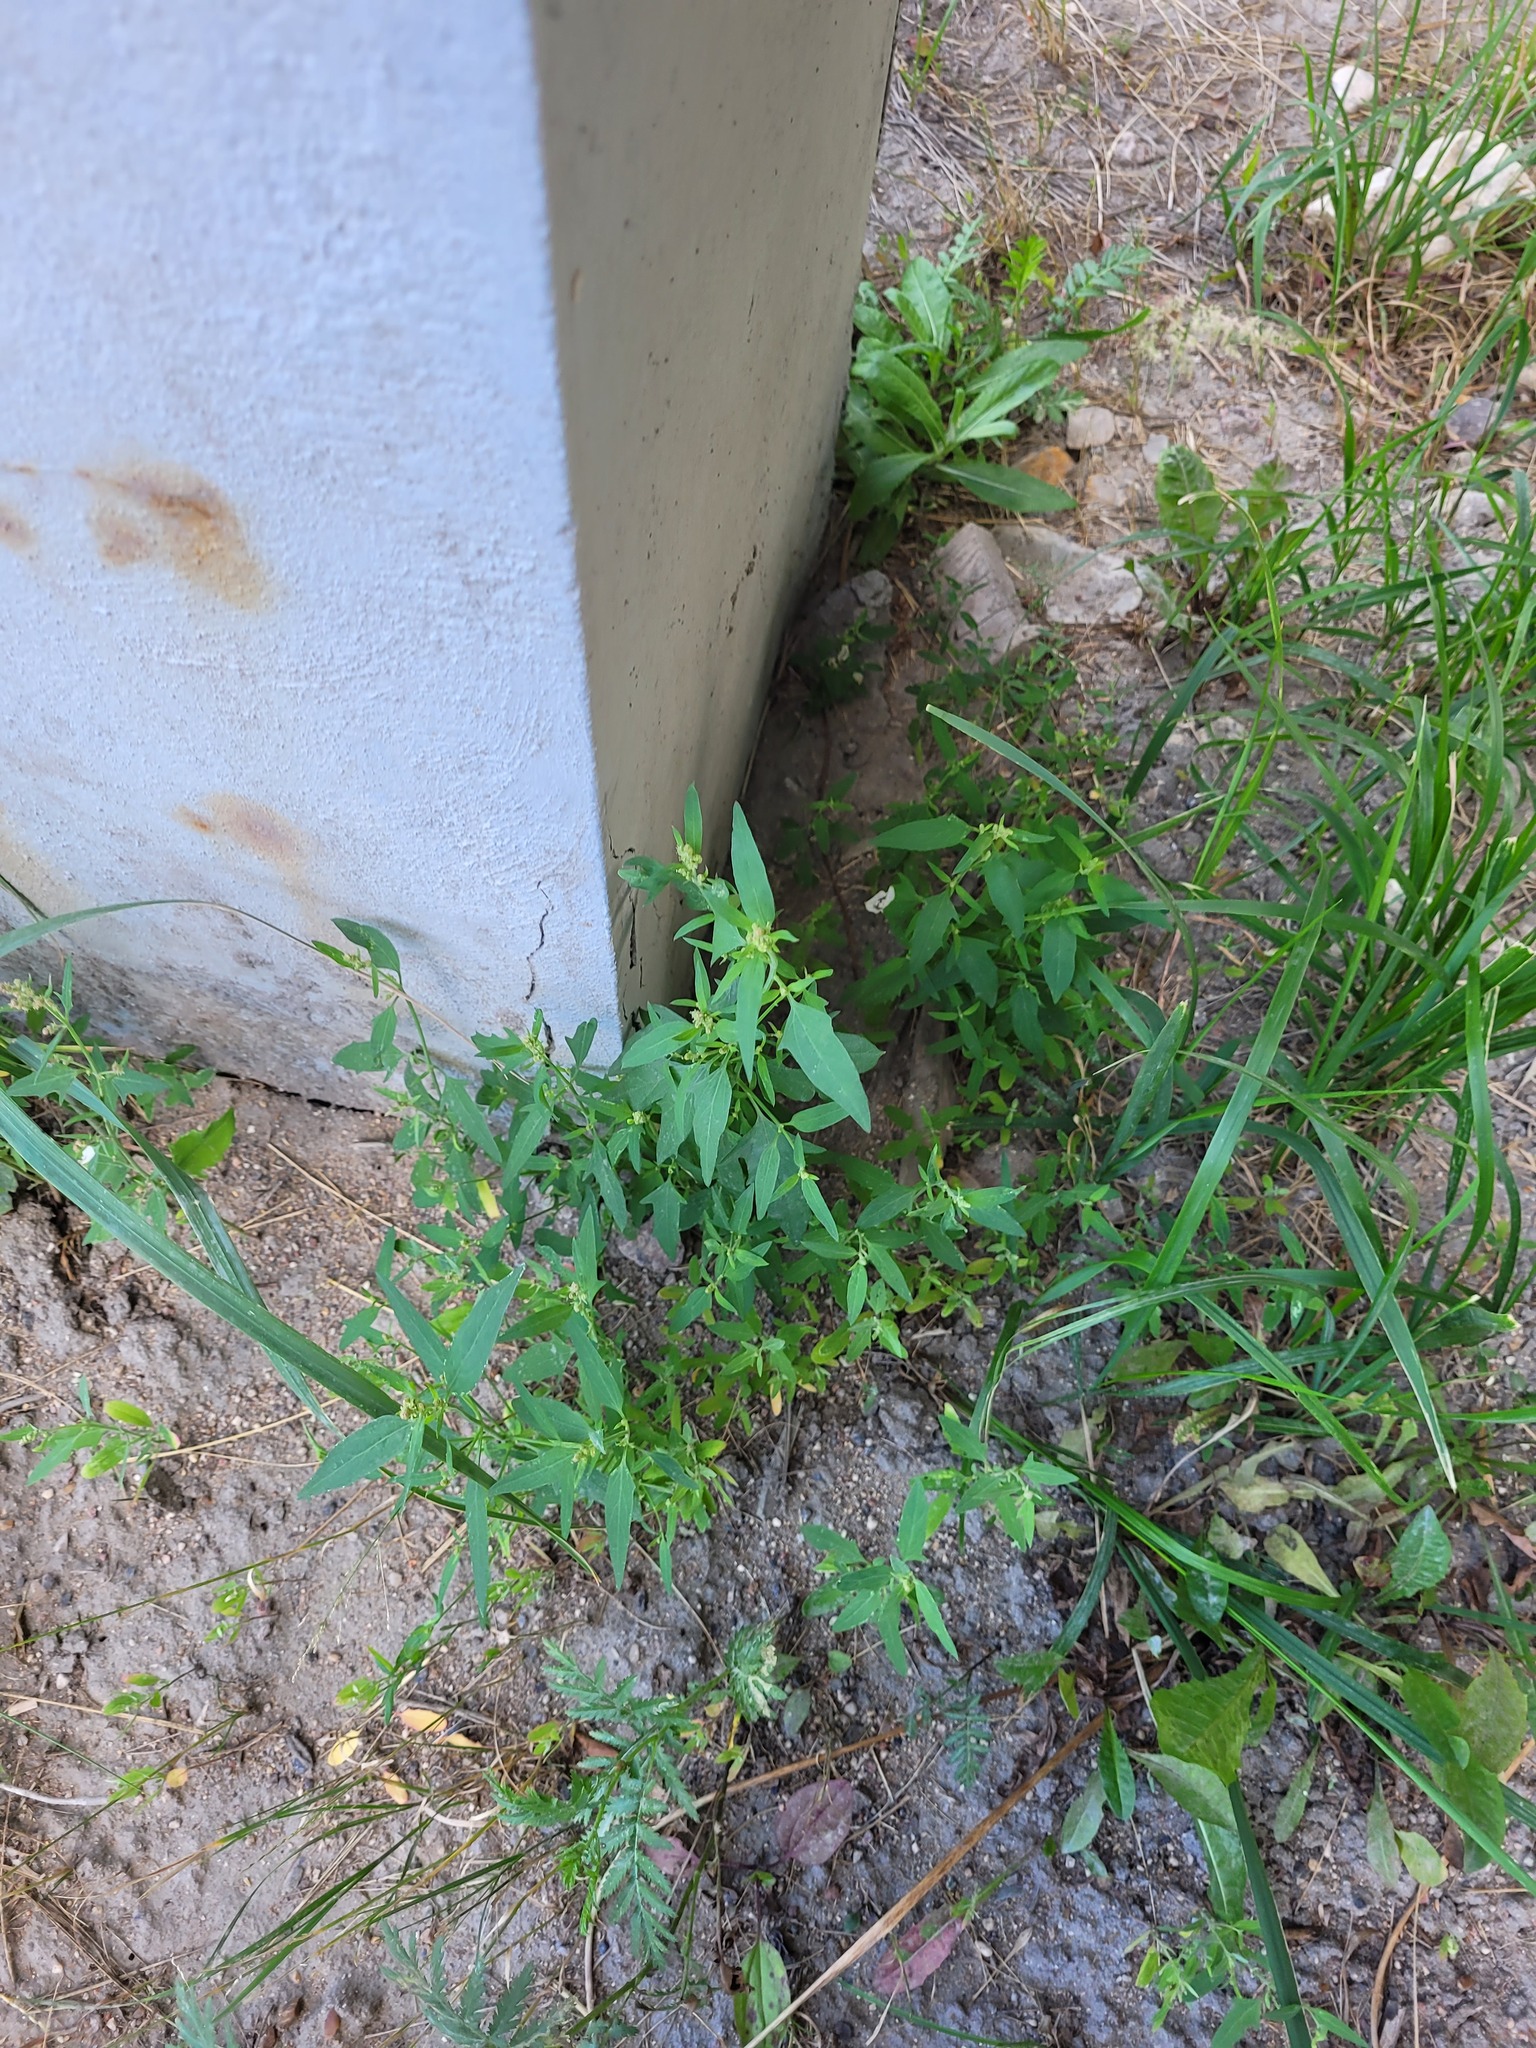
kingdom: Plantae
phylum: Tracheophyta
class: Magnoliopsida
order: Caryophyllales
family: Amaranthaceae
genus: Atriplex
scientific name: Atriplex patula
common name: Common orache
